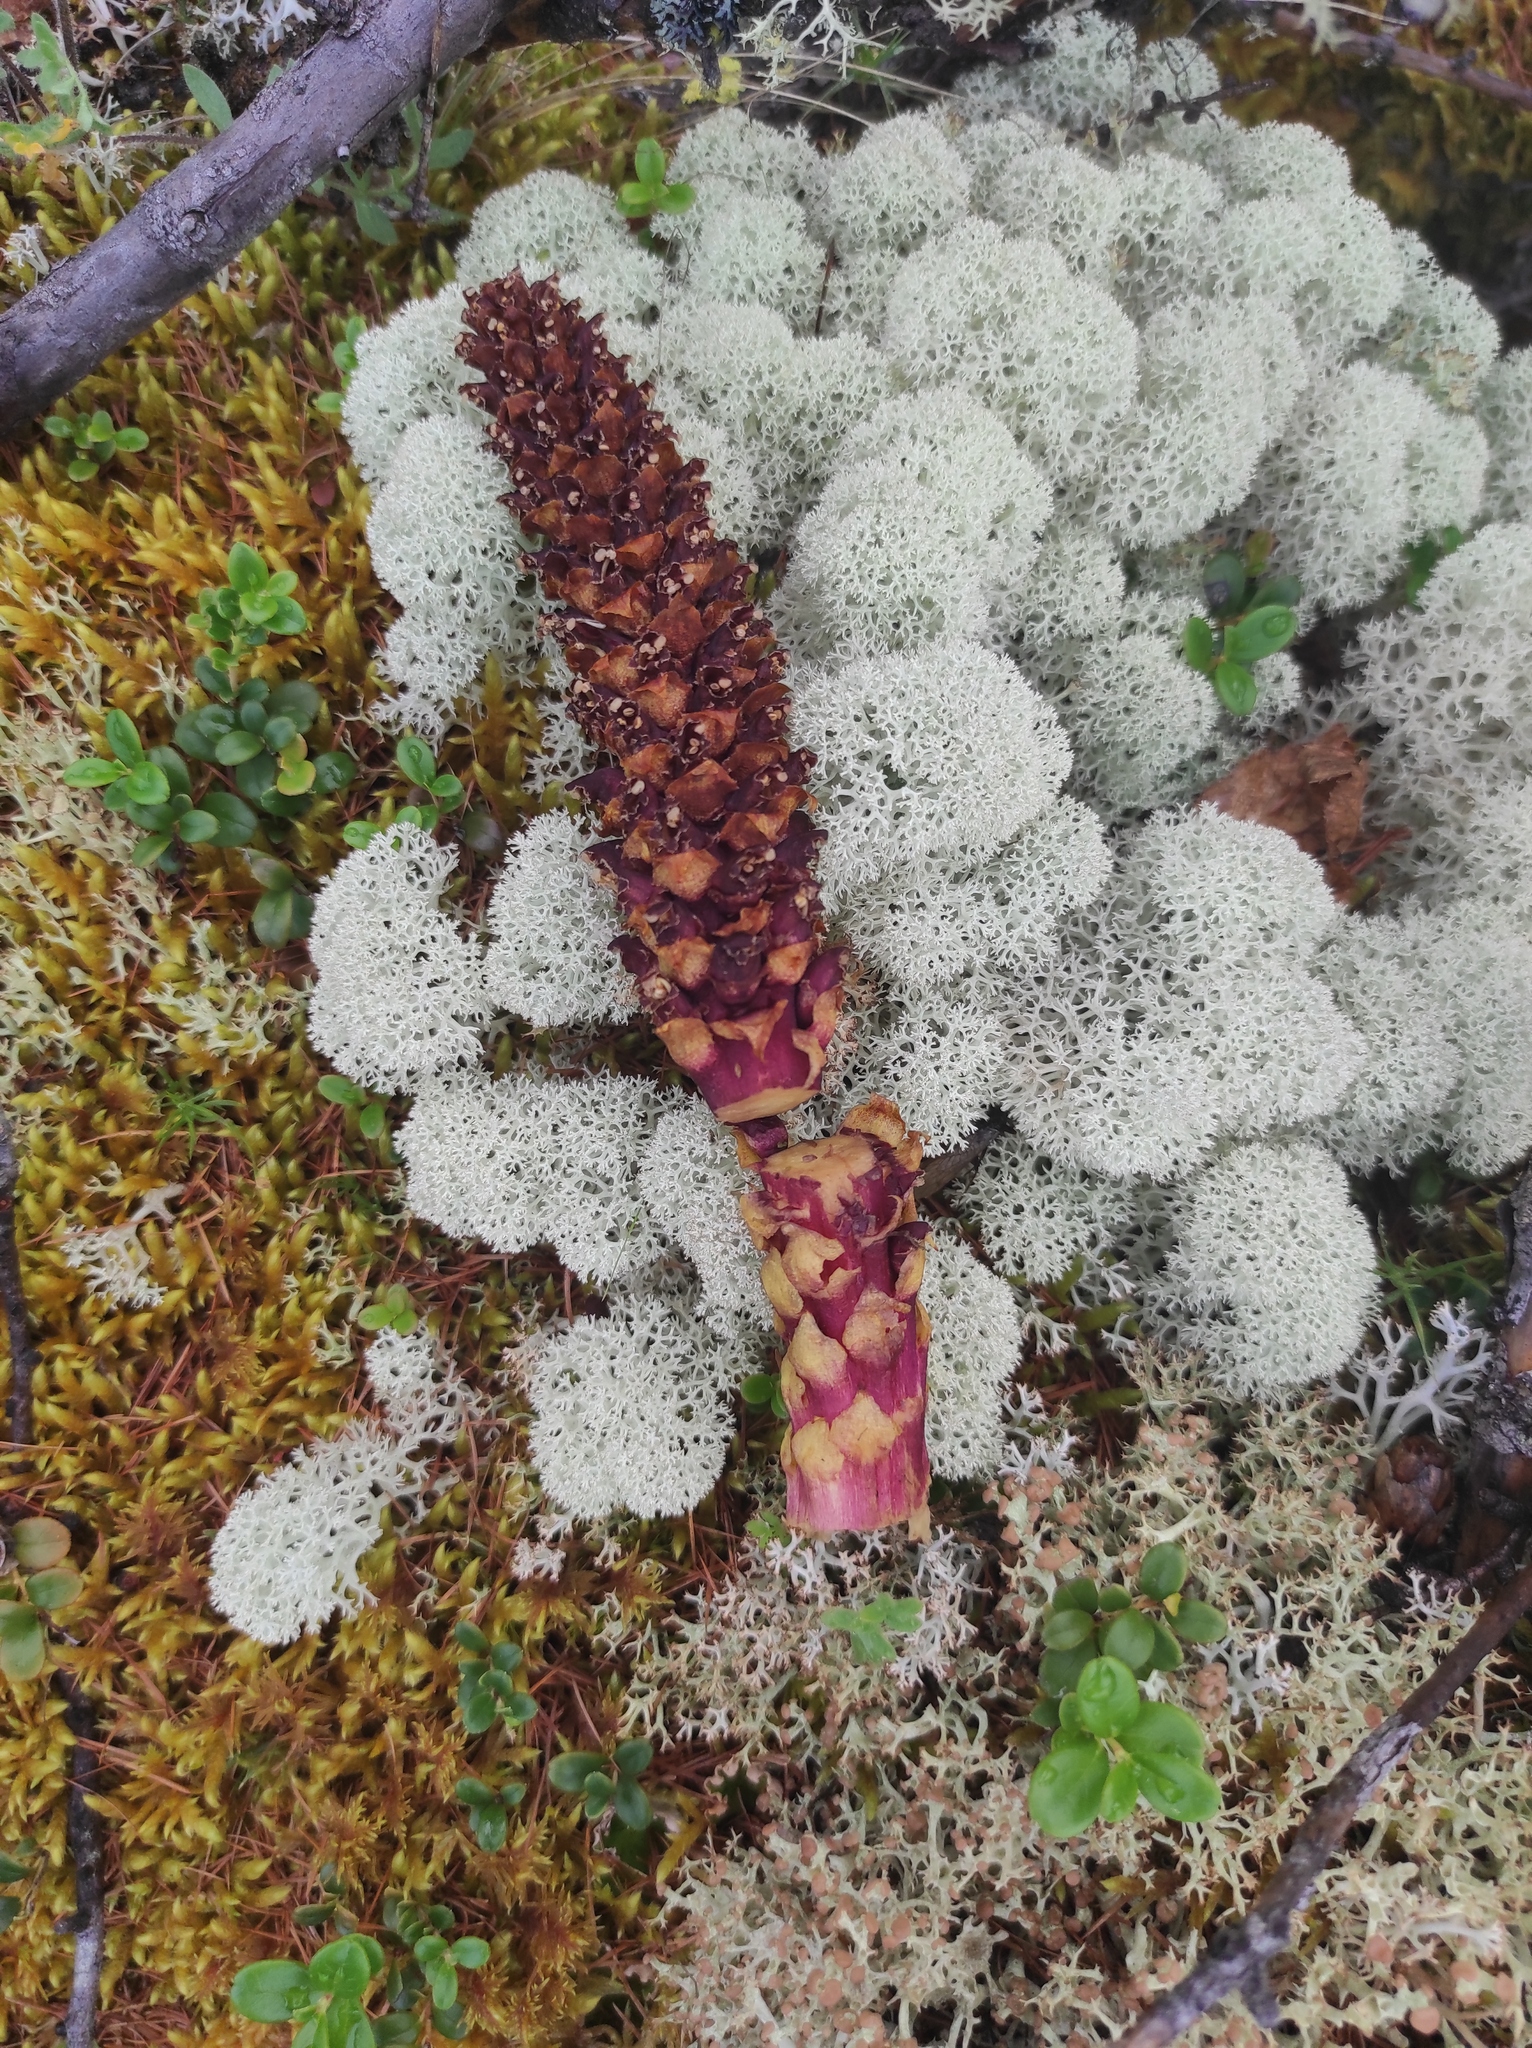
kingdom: Plantae
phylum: Tracheophyta
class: Magnoliopsida
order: Lamiales
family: Orobanchaceae
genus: Boschniakia
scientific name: Boschniakia rossica
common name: Poque
